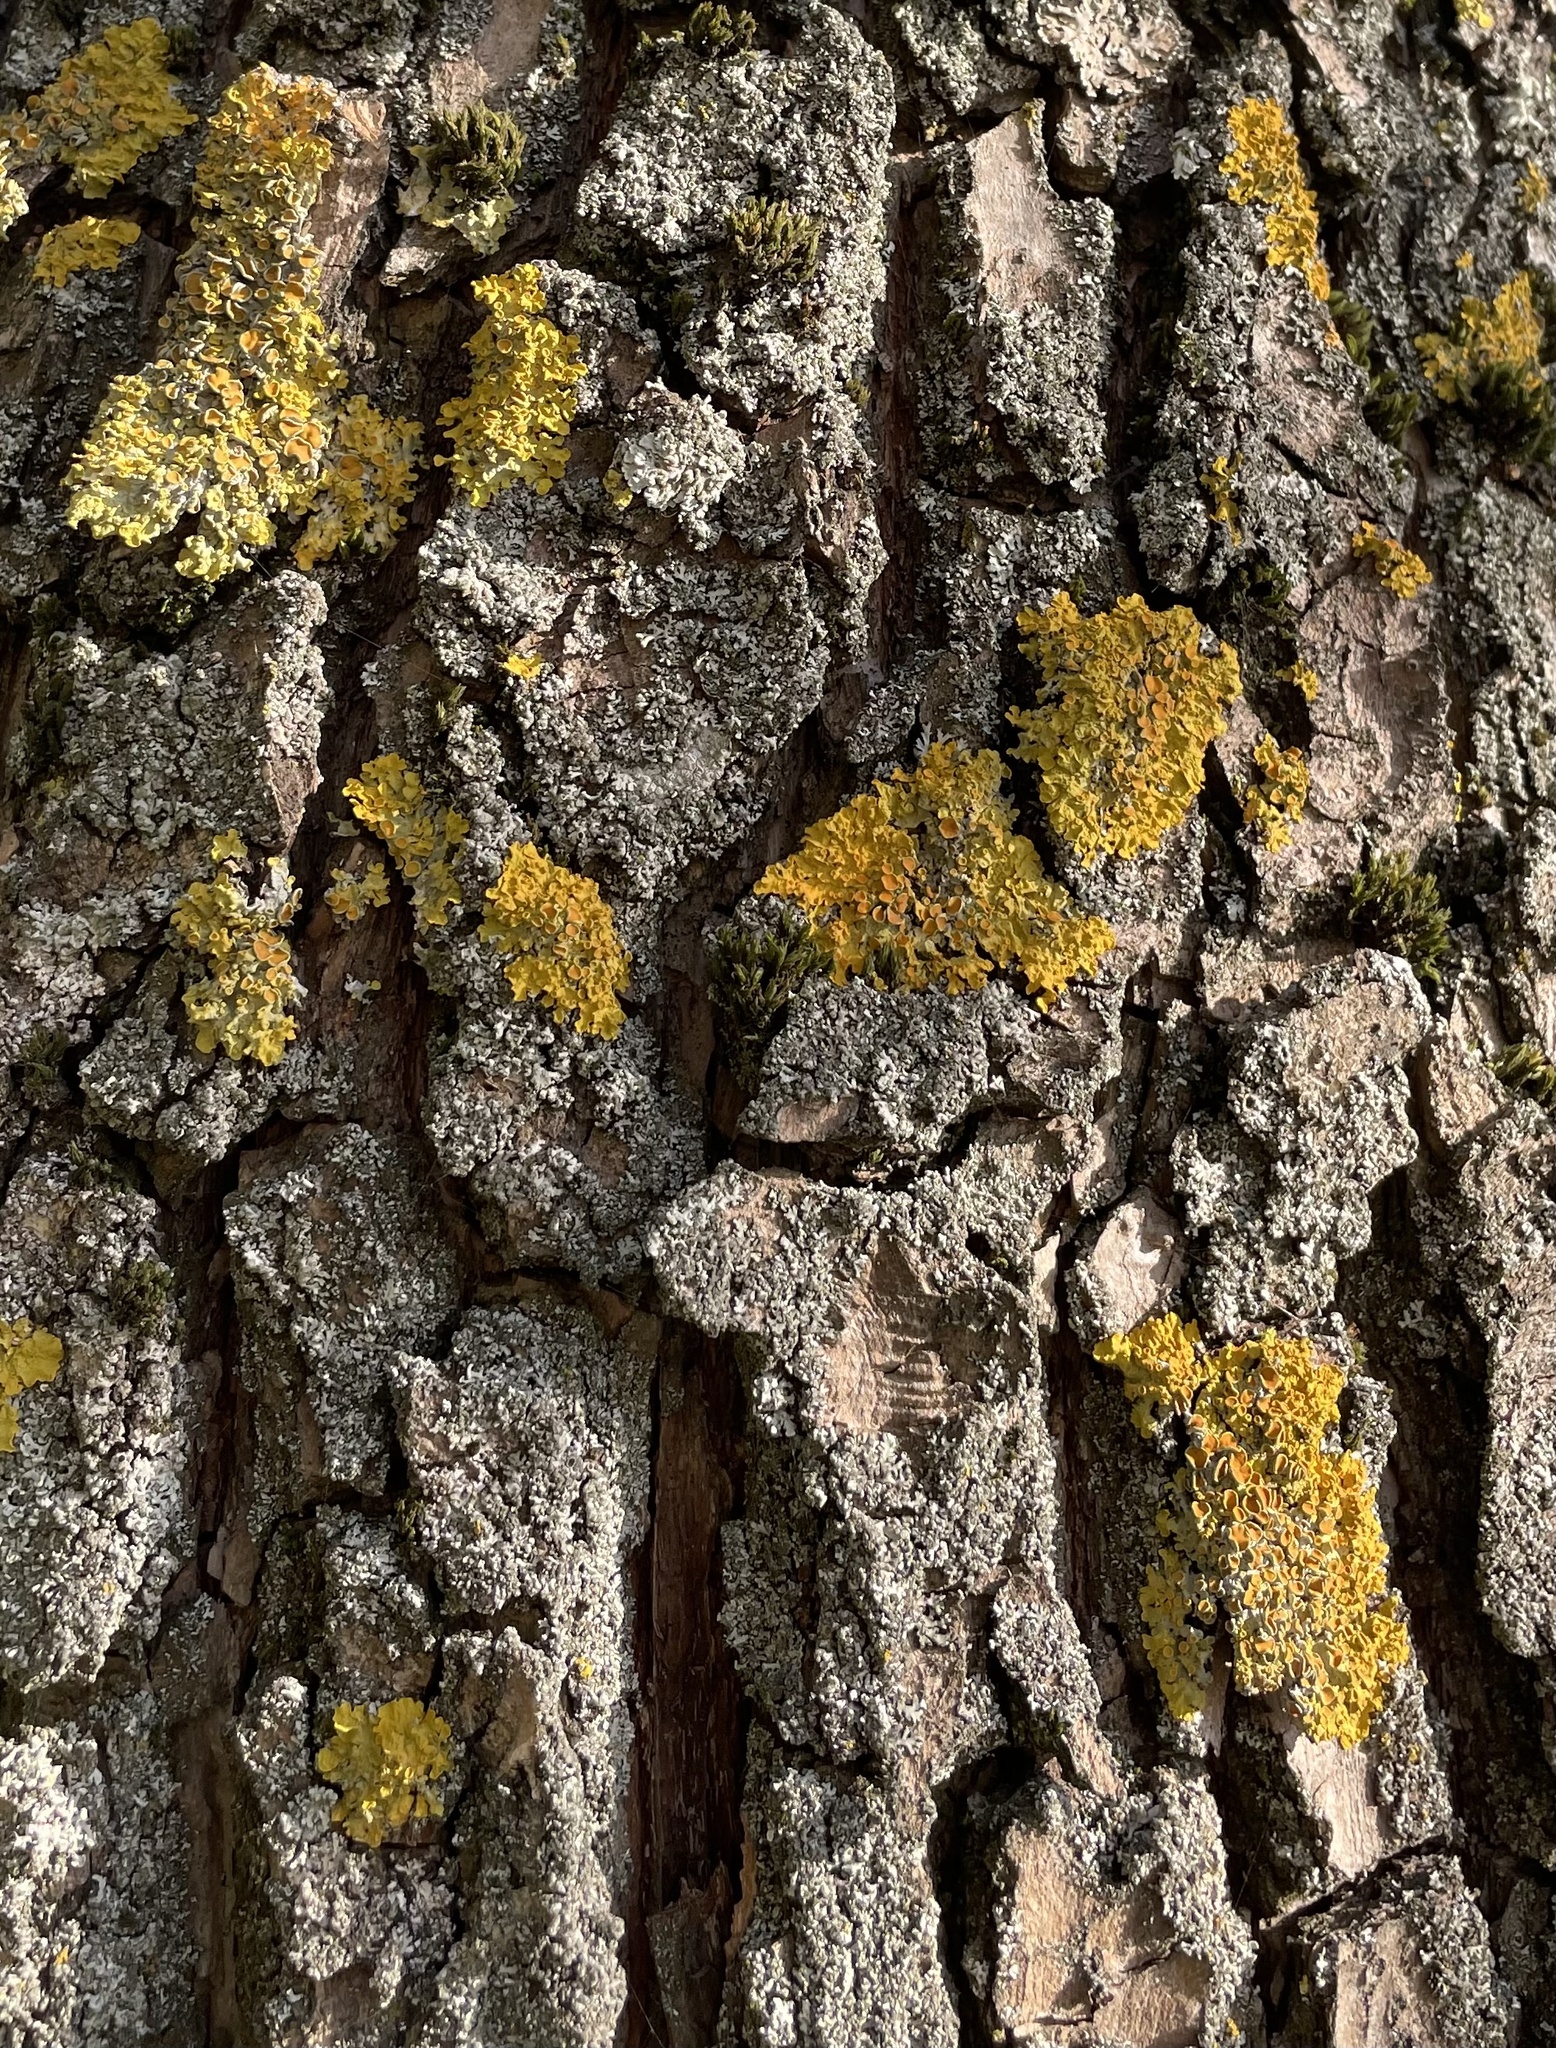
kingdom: Fungi
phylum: Ascomycota
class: Lecanoromycetes
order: Teloschistales
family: Teloschistaceae
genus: Xanthoria
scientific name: Xanthoria parietina
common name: Common orange lichen
